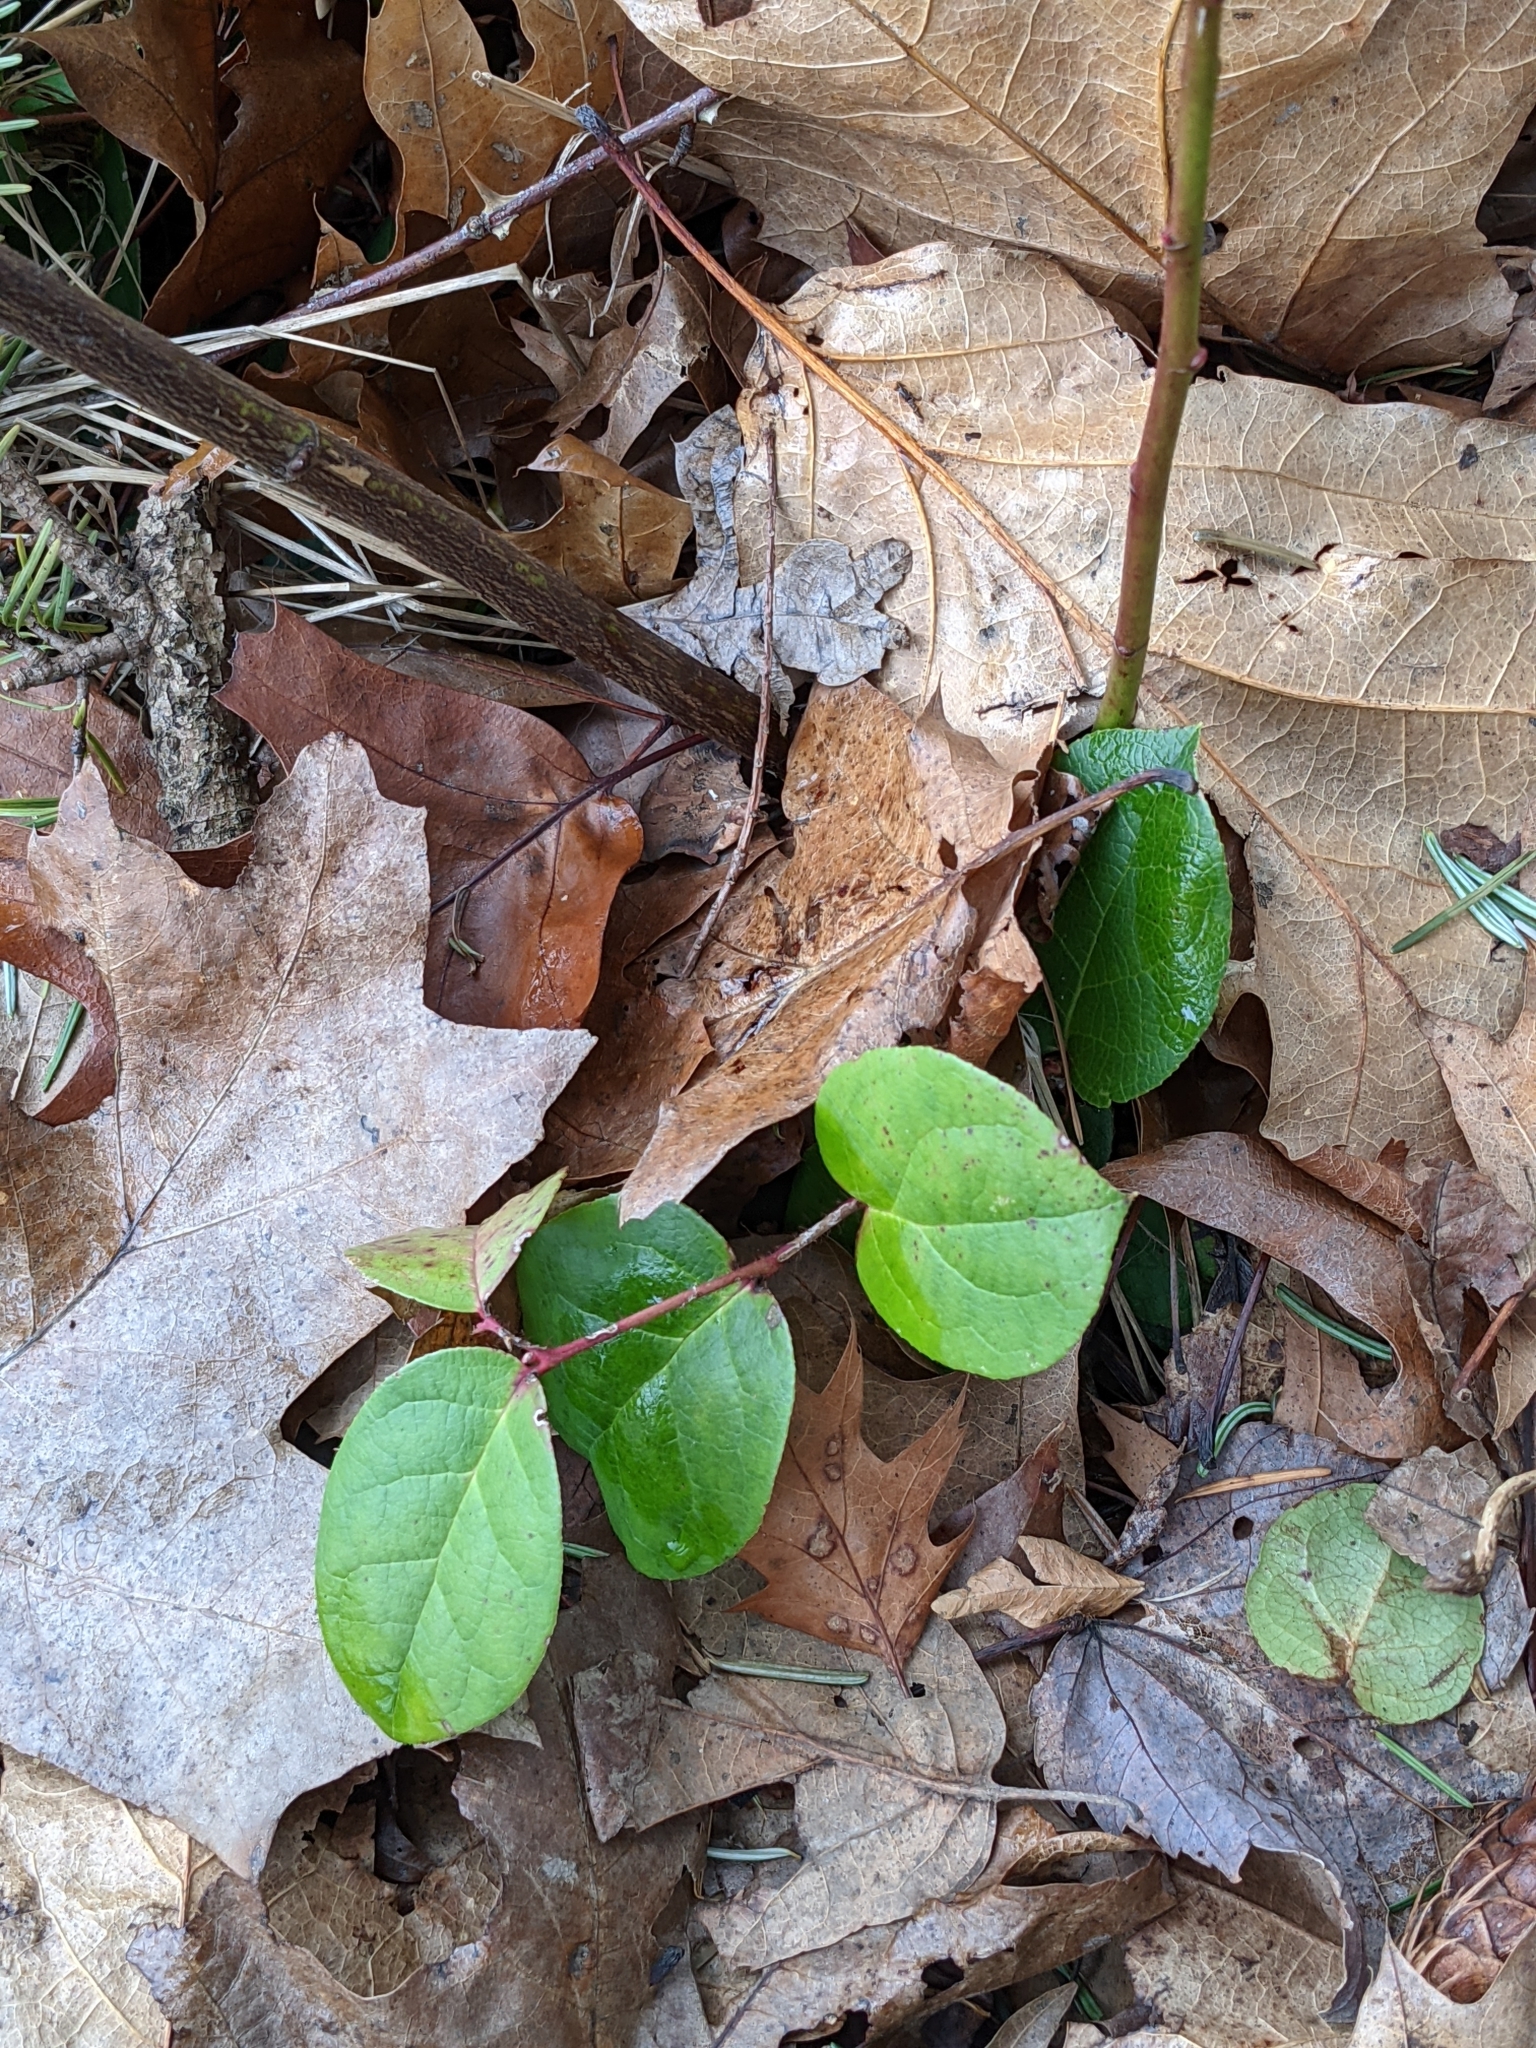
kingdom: Plantae
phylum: Tracheophyta
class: Magnoliopsida
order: Ericales
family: Ericaceae
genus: Gaultheria
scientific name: Gaultheria shallon
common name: Shallon
